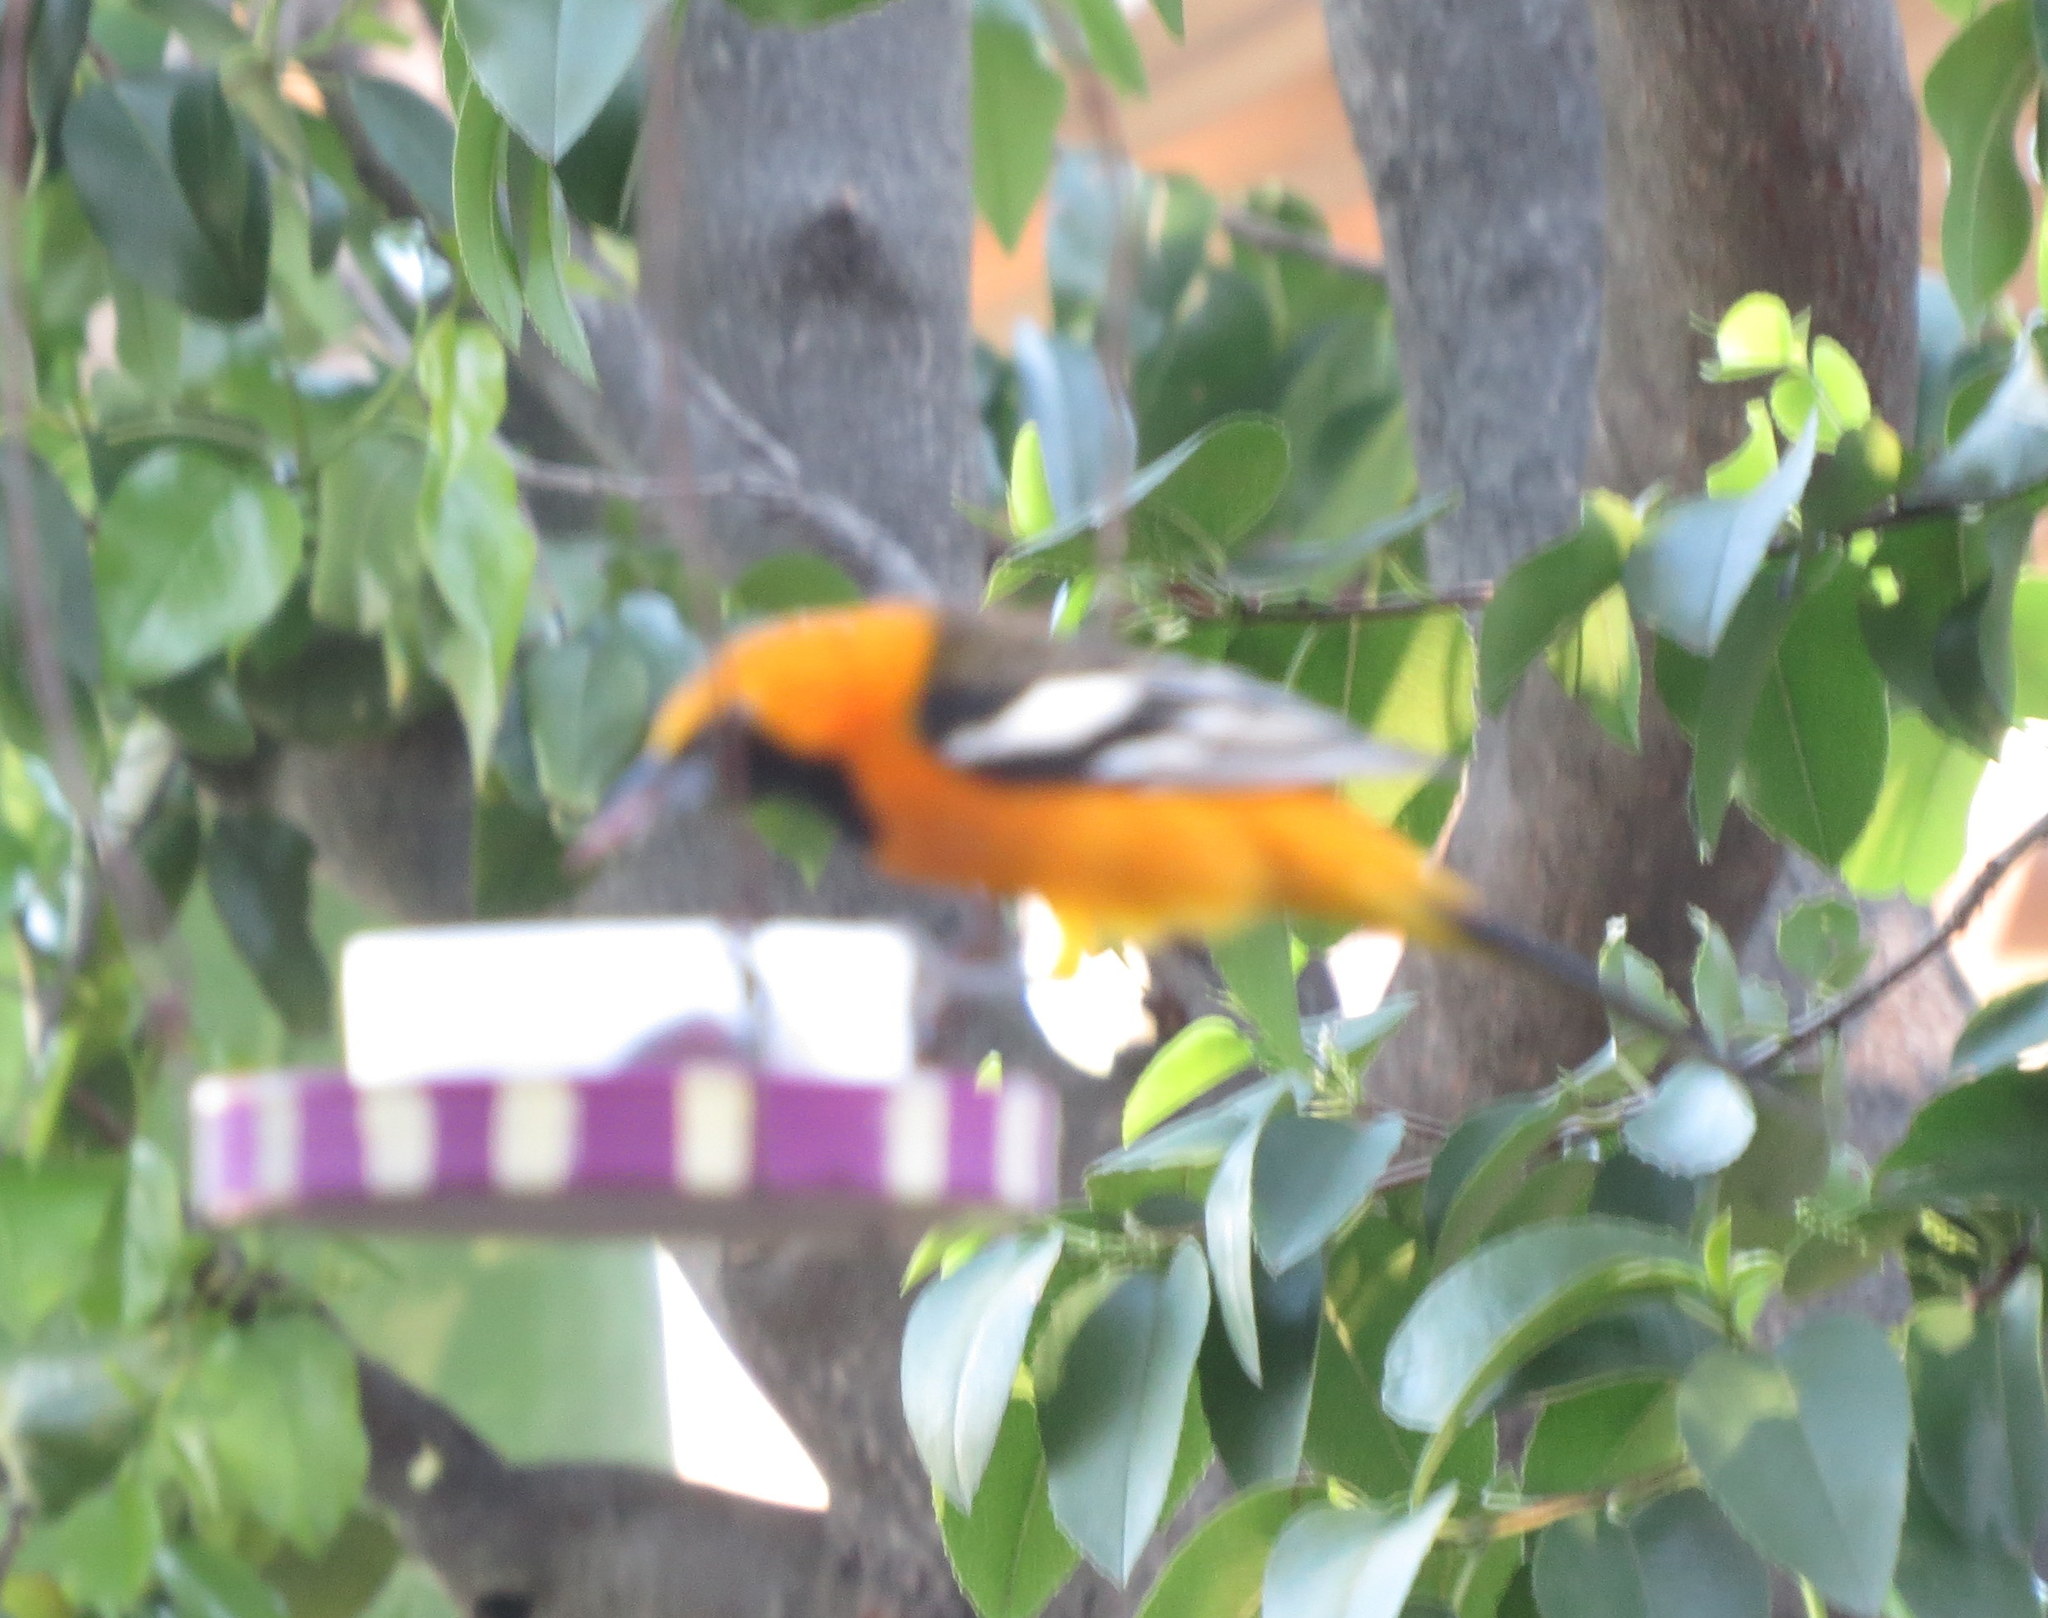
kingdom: Animalia
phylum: Chordata
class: Aves
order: Passeriformes
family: Icteridae
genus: Icterus
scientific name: Icterus cucullatus
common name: Hooded oriole
